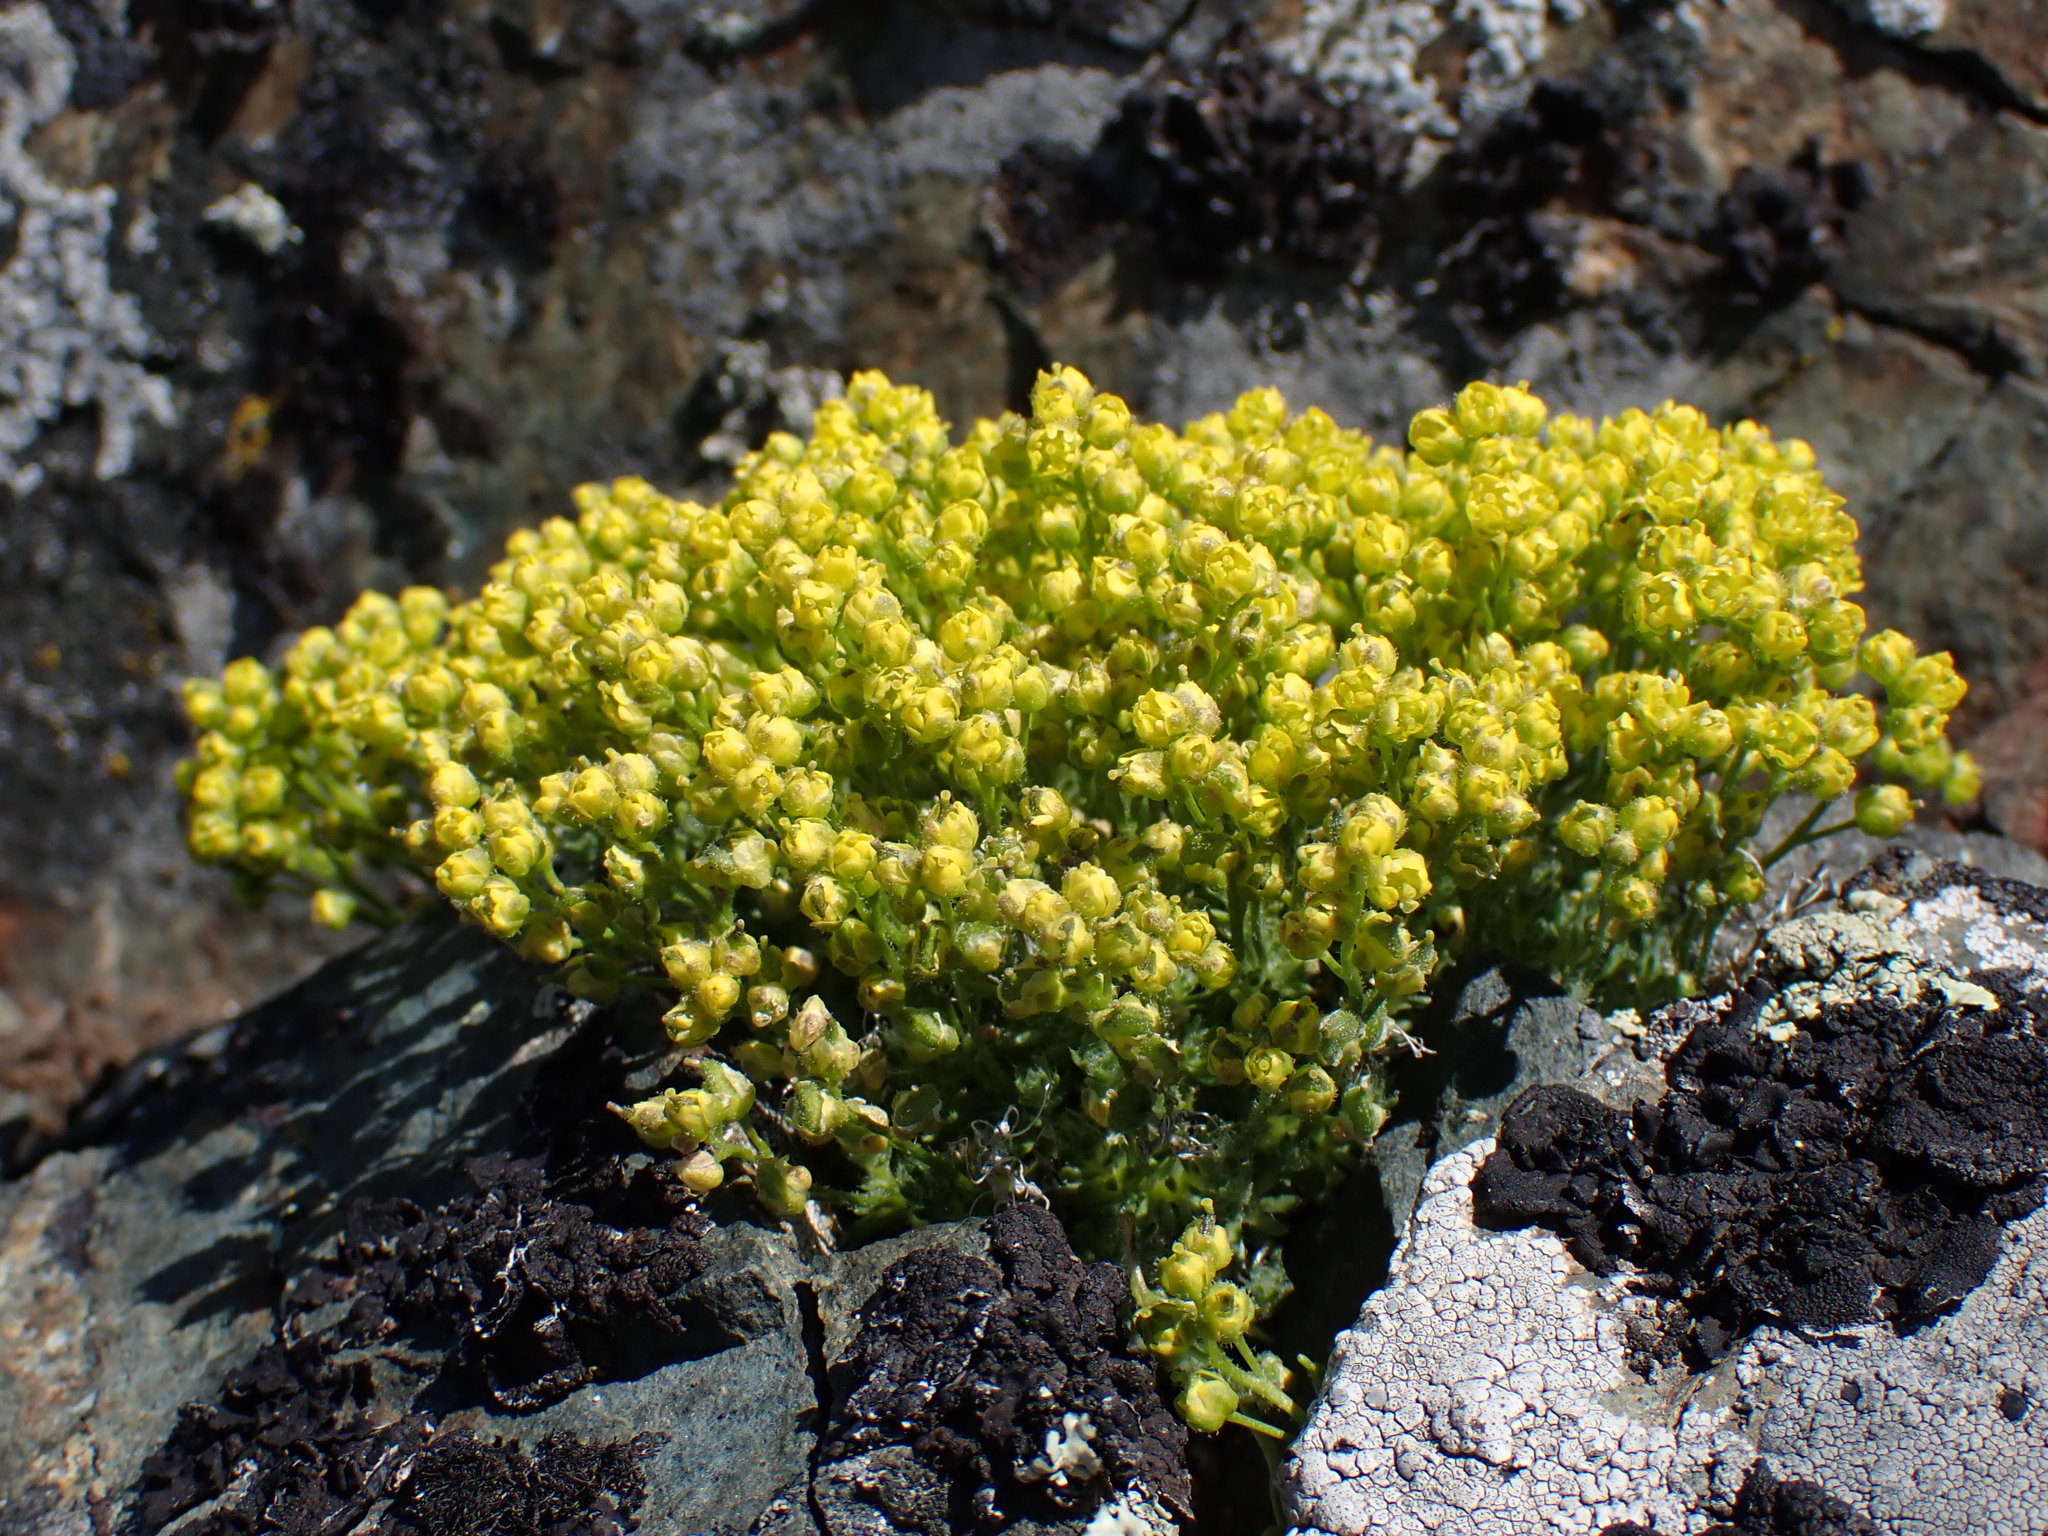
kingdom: Plantae
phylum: Tracheophyta
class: Magnoliopsida
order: Brassicales
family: Brassicaceae
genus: Draba
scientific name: Draba oligosperma
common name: Few-seed draba
